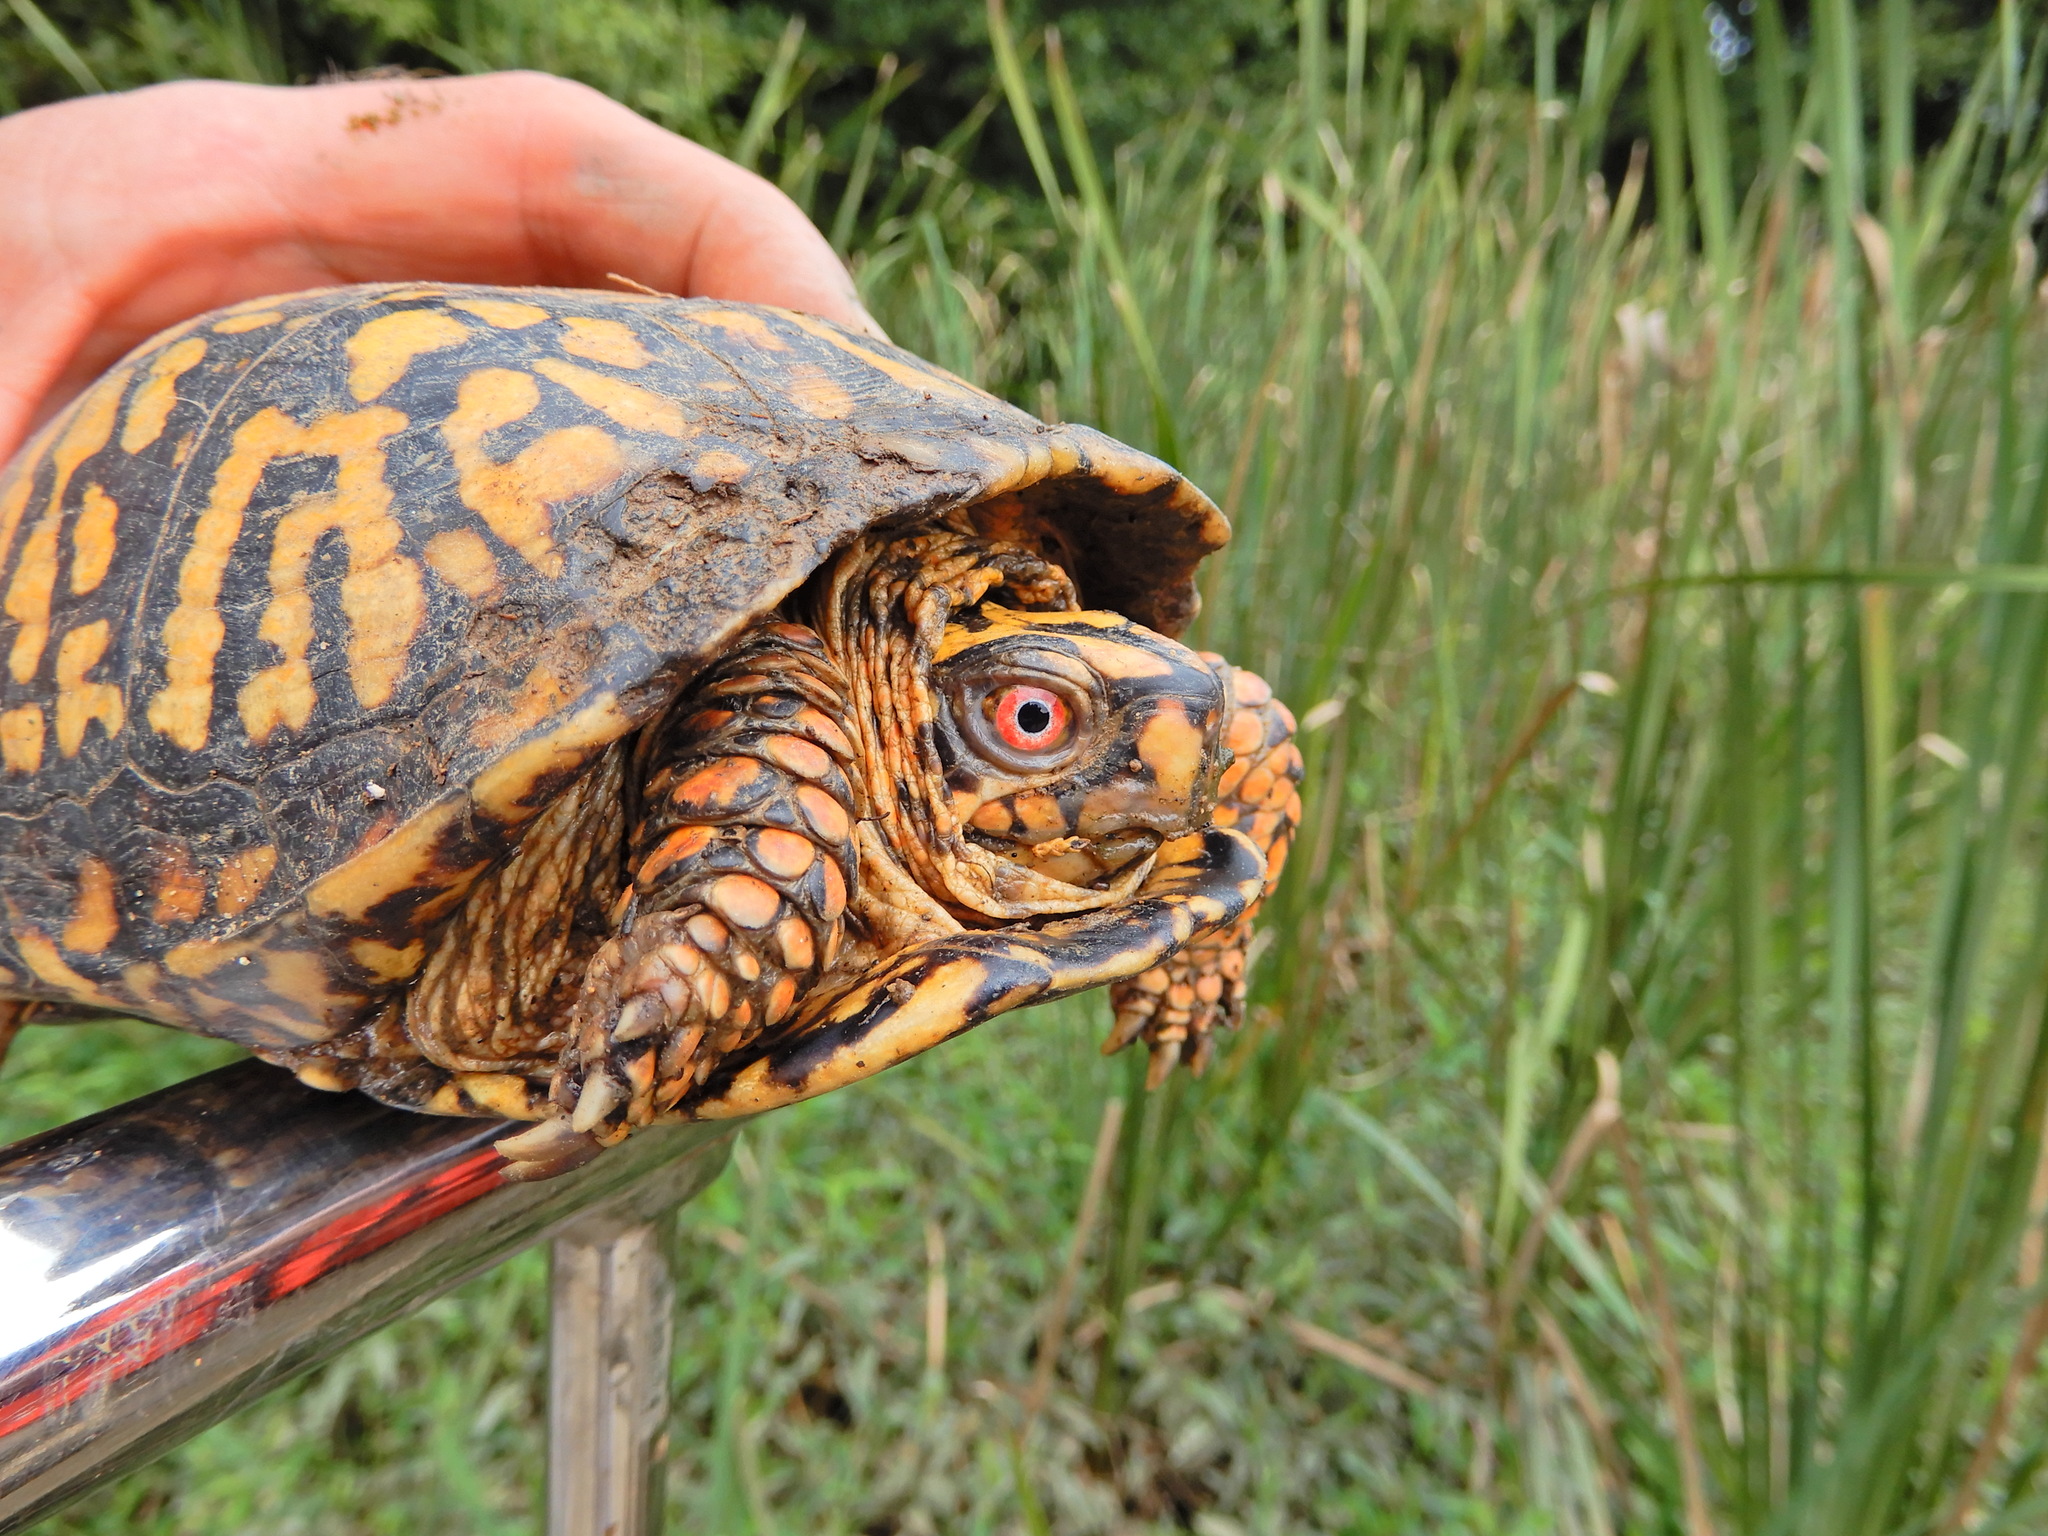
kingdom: Animalia
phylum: Chordata
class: Testudines
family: Emydidae
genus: Terrapene
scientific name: Terrapene carolina
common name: Common box turtle
